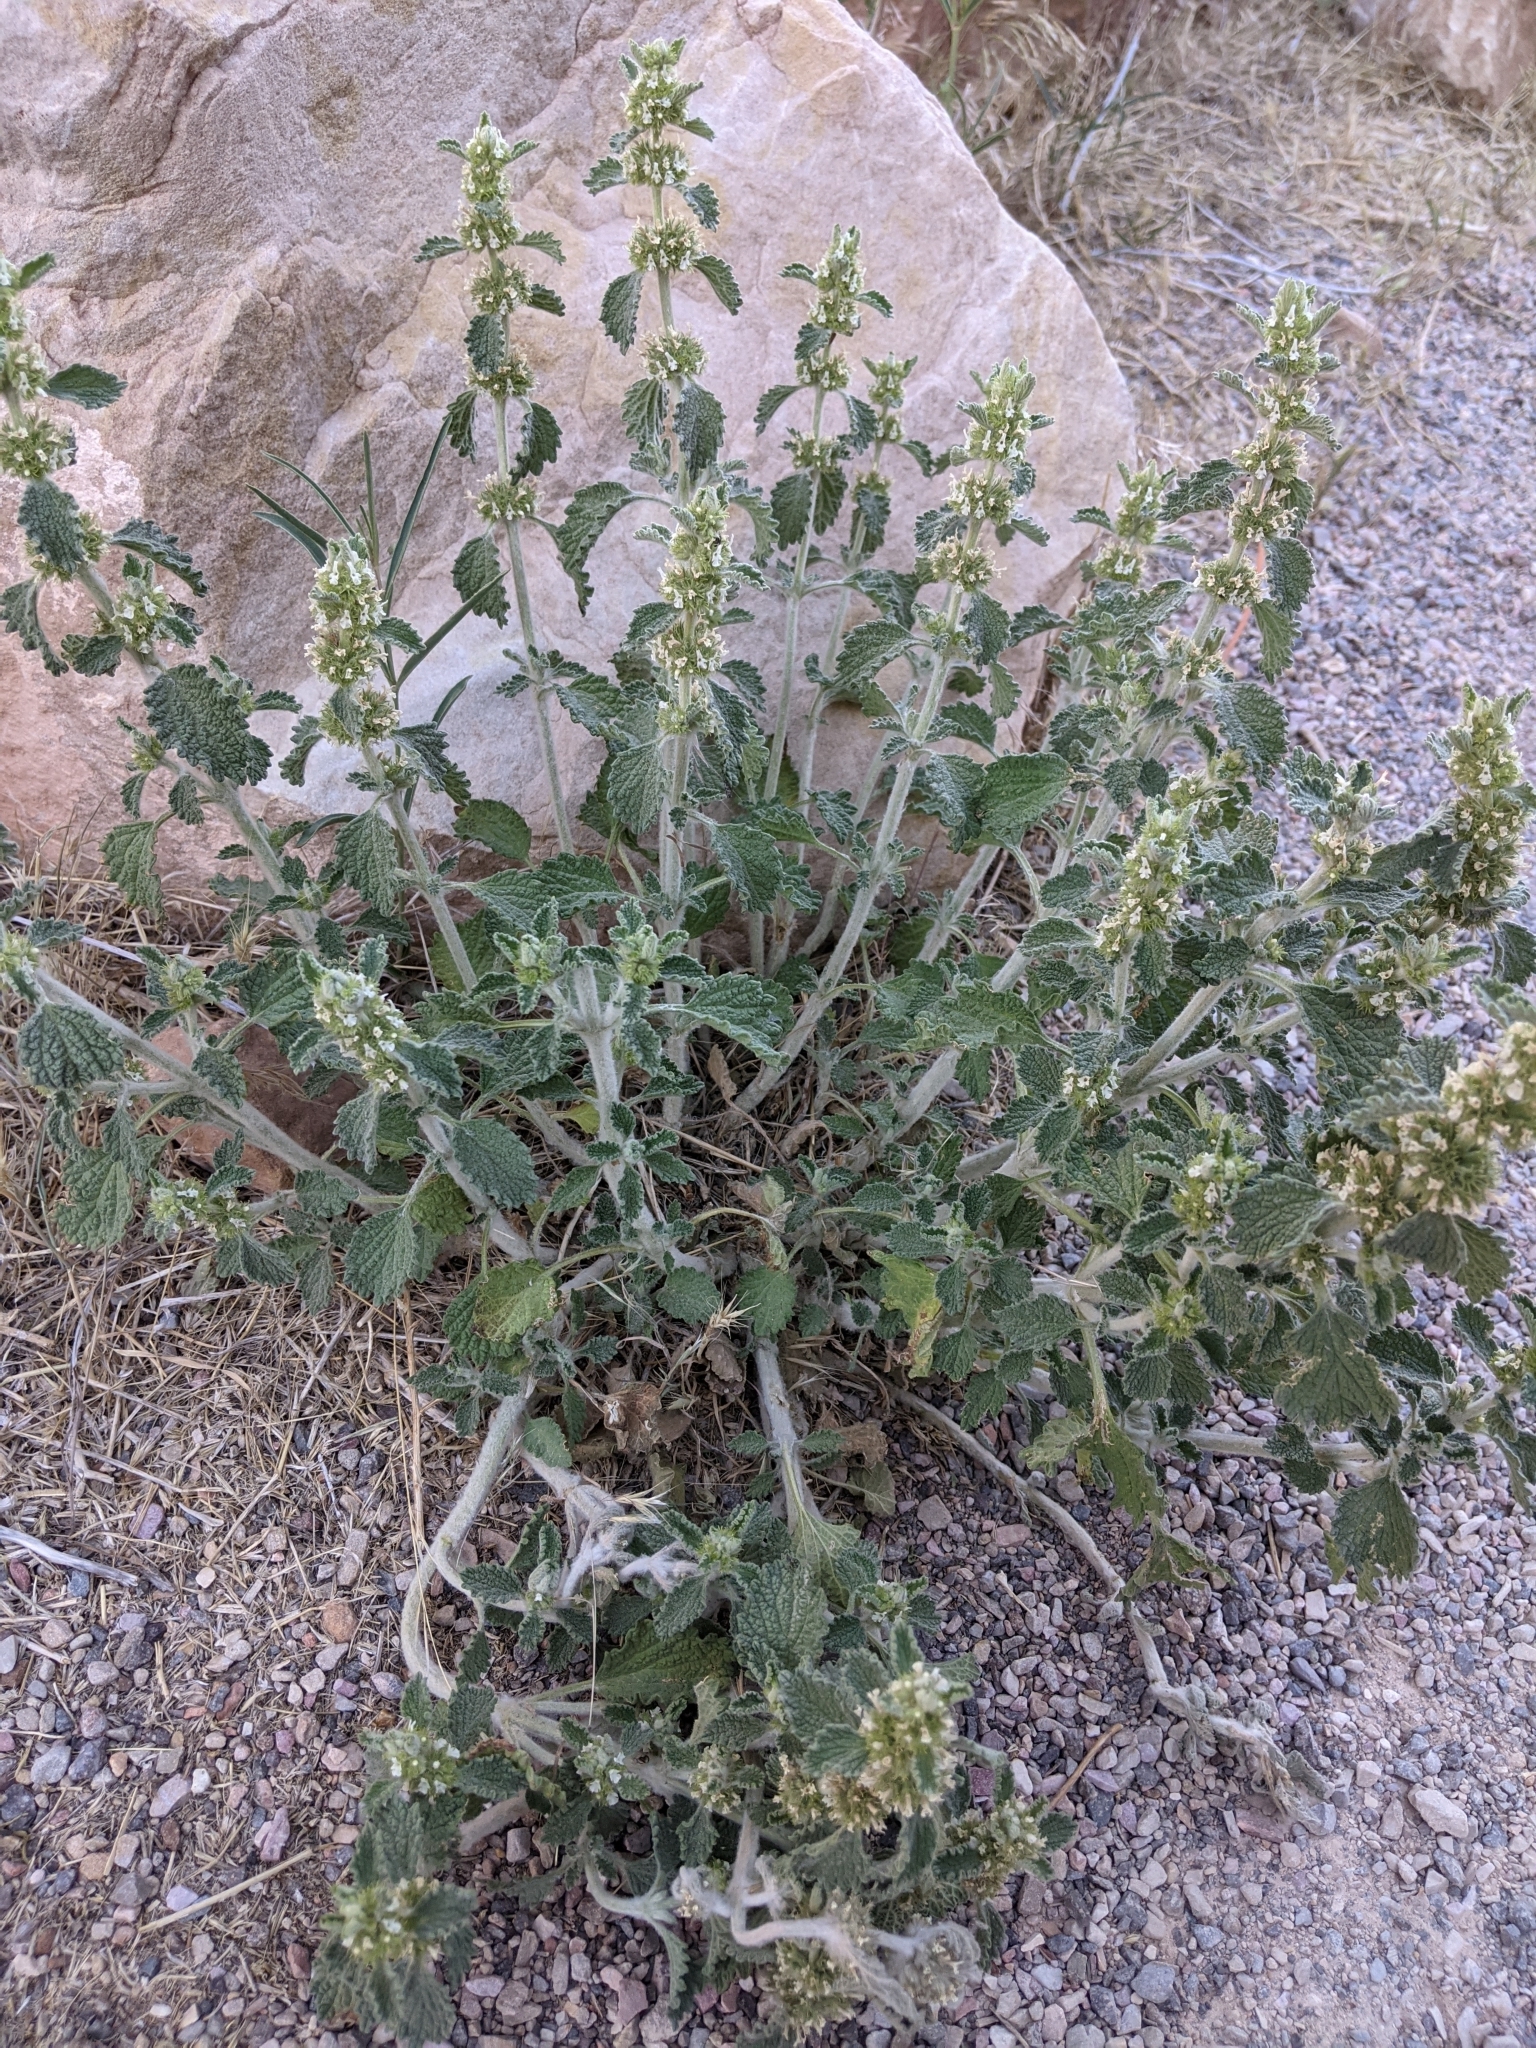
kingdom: Plantae
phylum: Tracheophyta
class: Magnoliopsida
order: Lamiales
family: Lamiaceae
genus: Marrubium
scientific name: Marrubium vulgare
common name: Horehound
